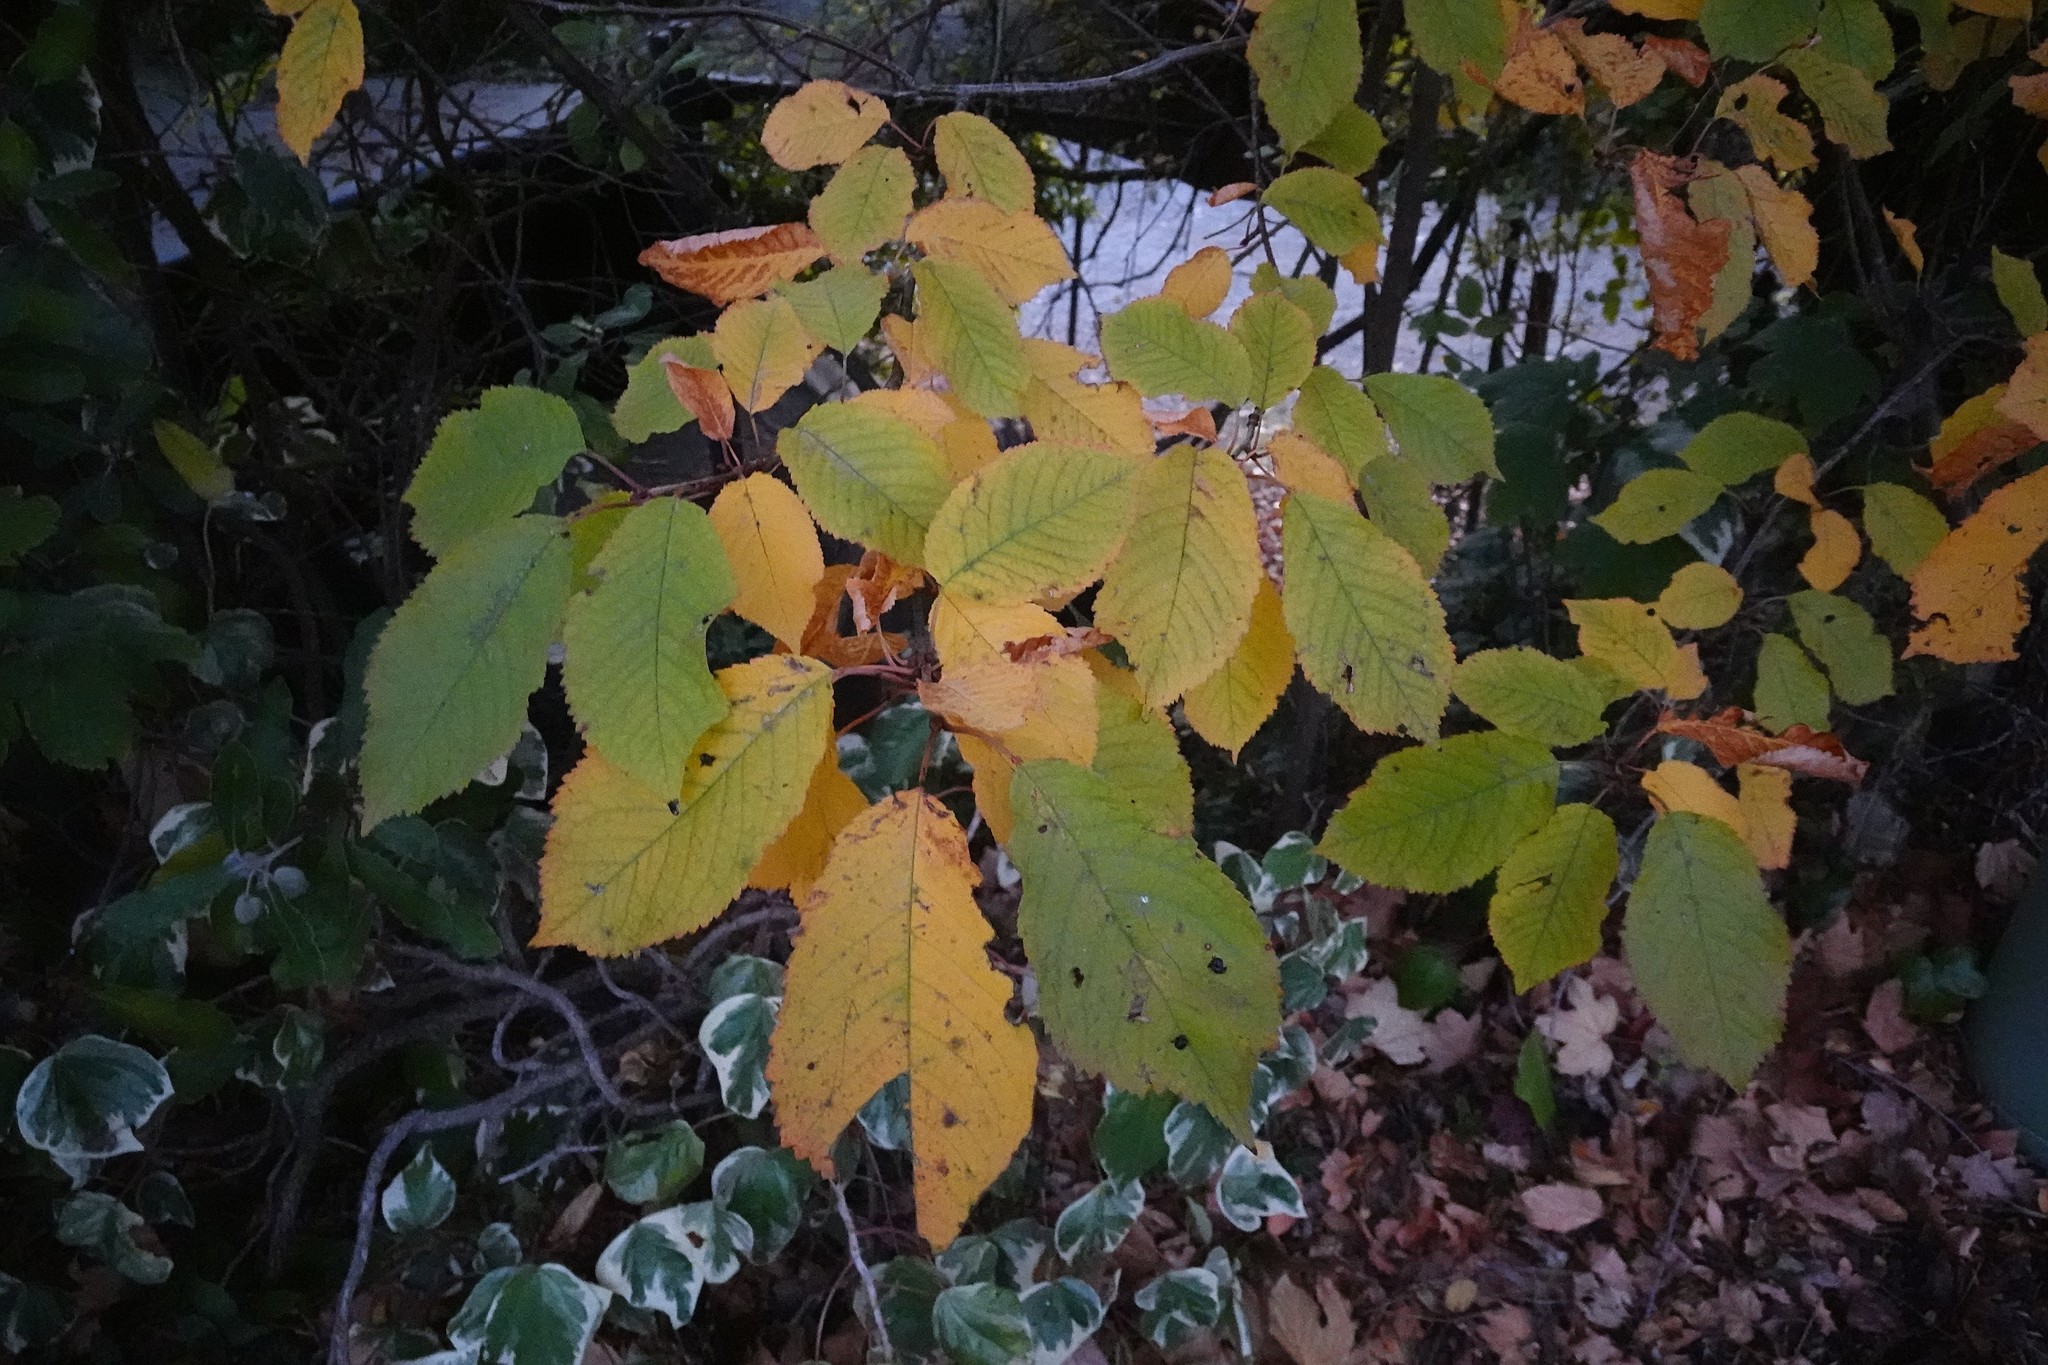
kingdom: Plantae
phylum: Tracheophyta
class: Magnoliopsida
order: Rosales
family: Rosaceae
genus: Prunus
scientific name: Prunus avium
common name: Sweet cherry
